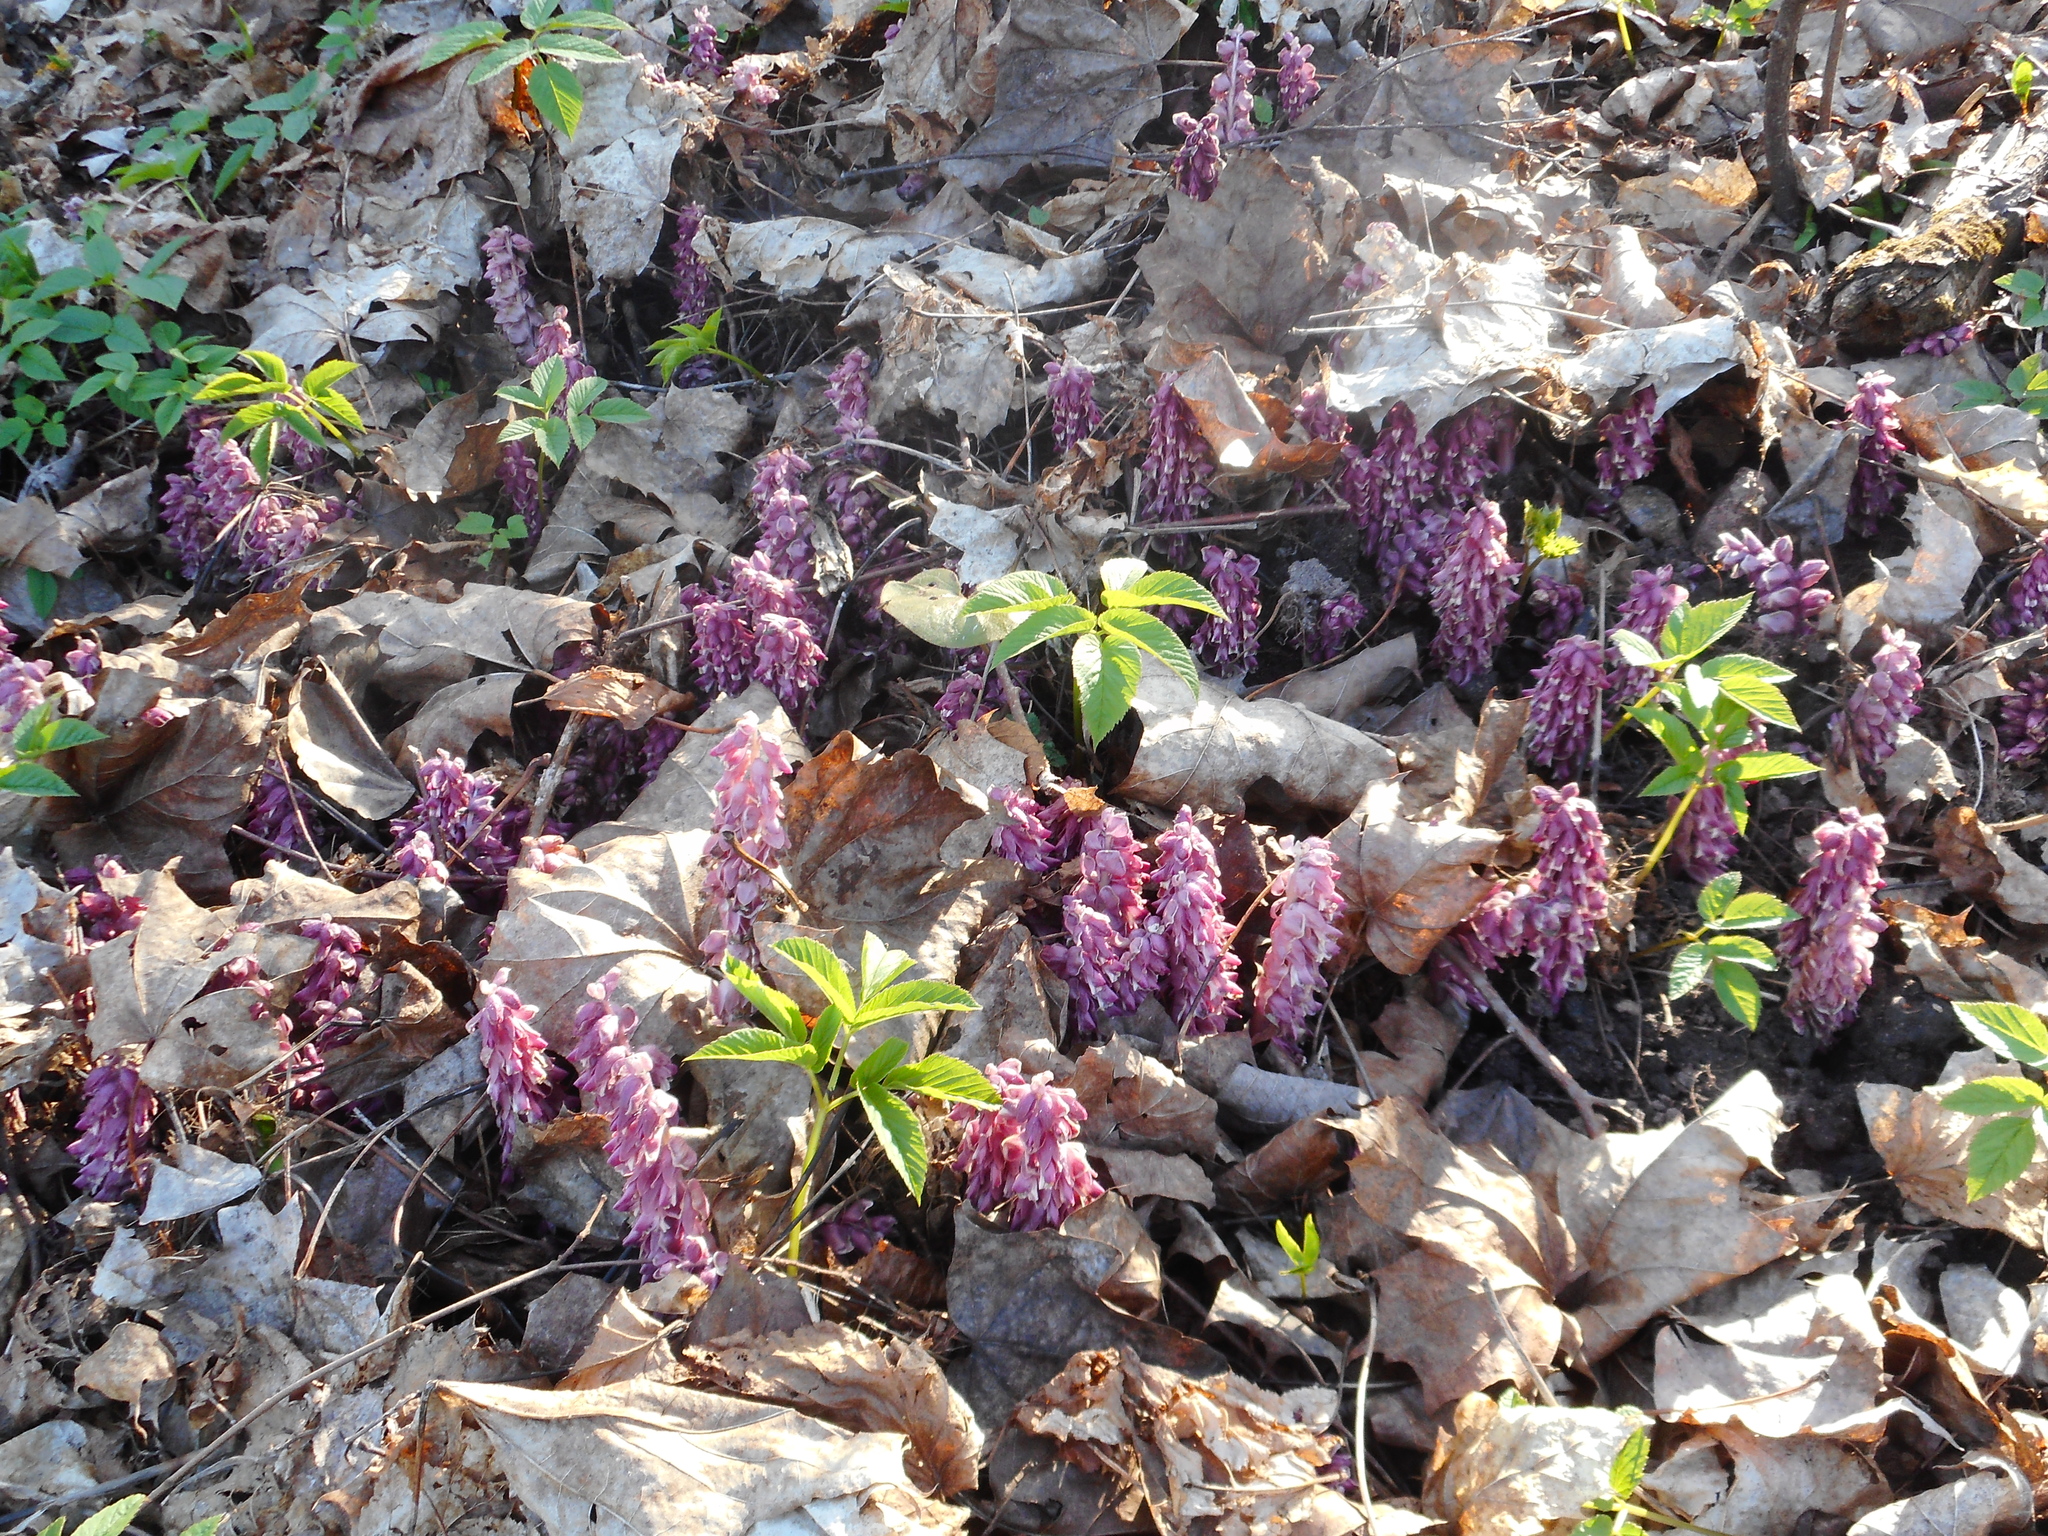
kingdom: Plantae
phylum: Tracheophyta
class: Magnoliopsida
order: Lamiales
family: Orobanchaceae
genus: Lathraea
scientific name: Lathraea squamaria
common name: Toothwort
